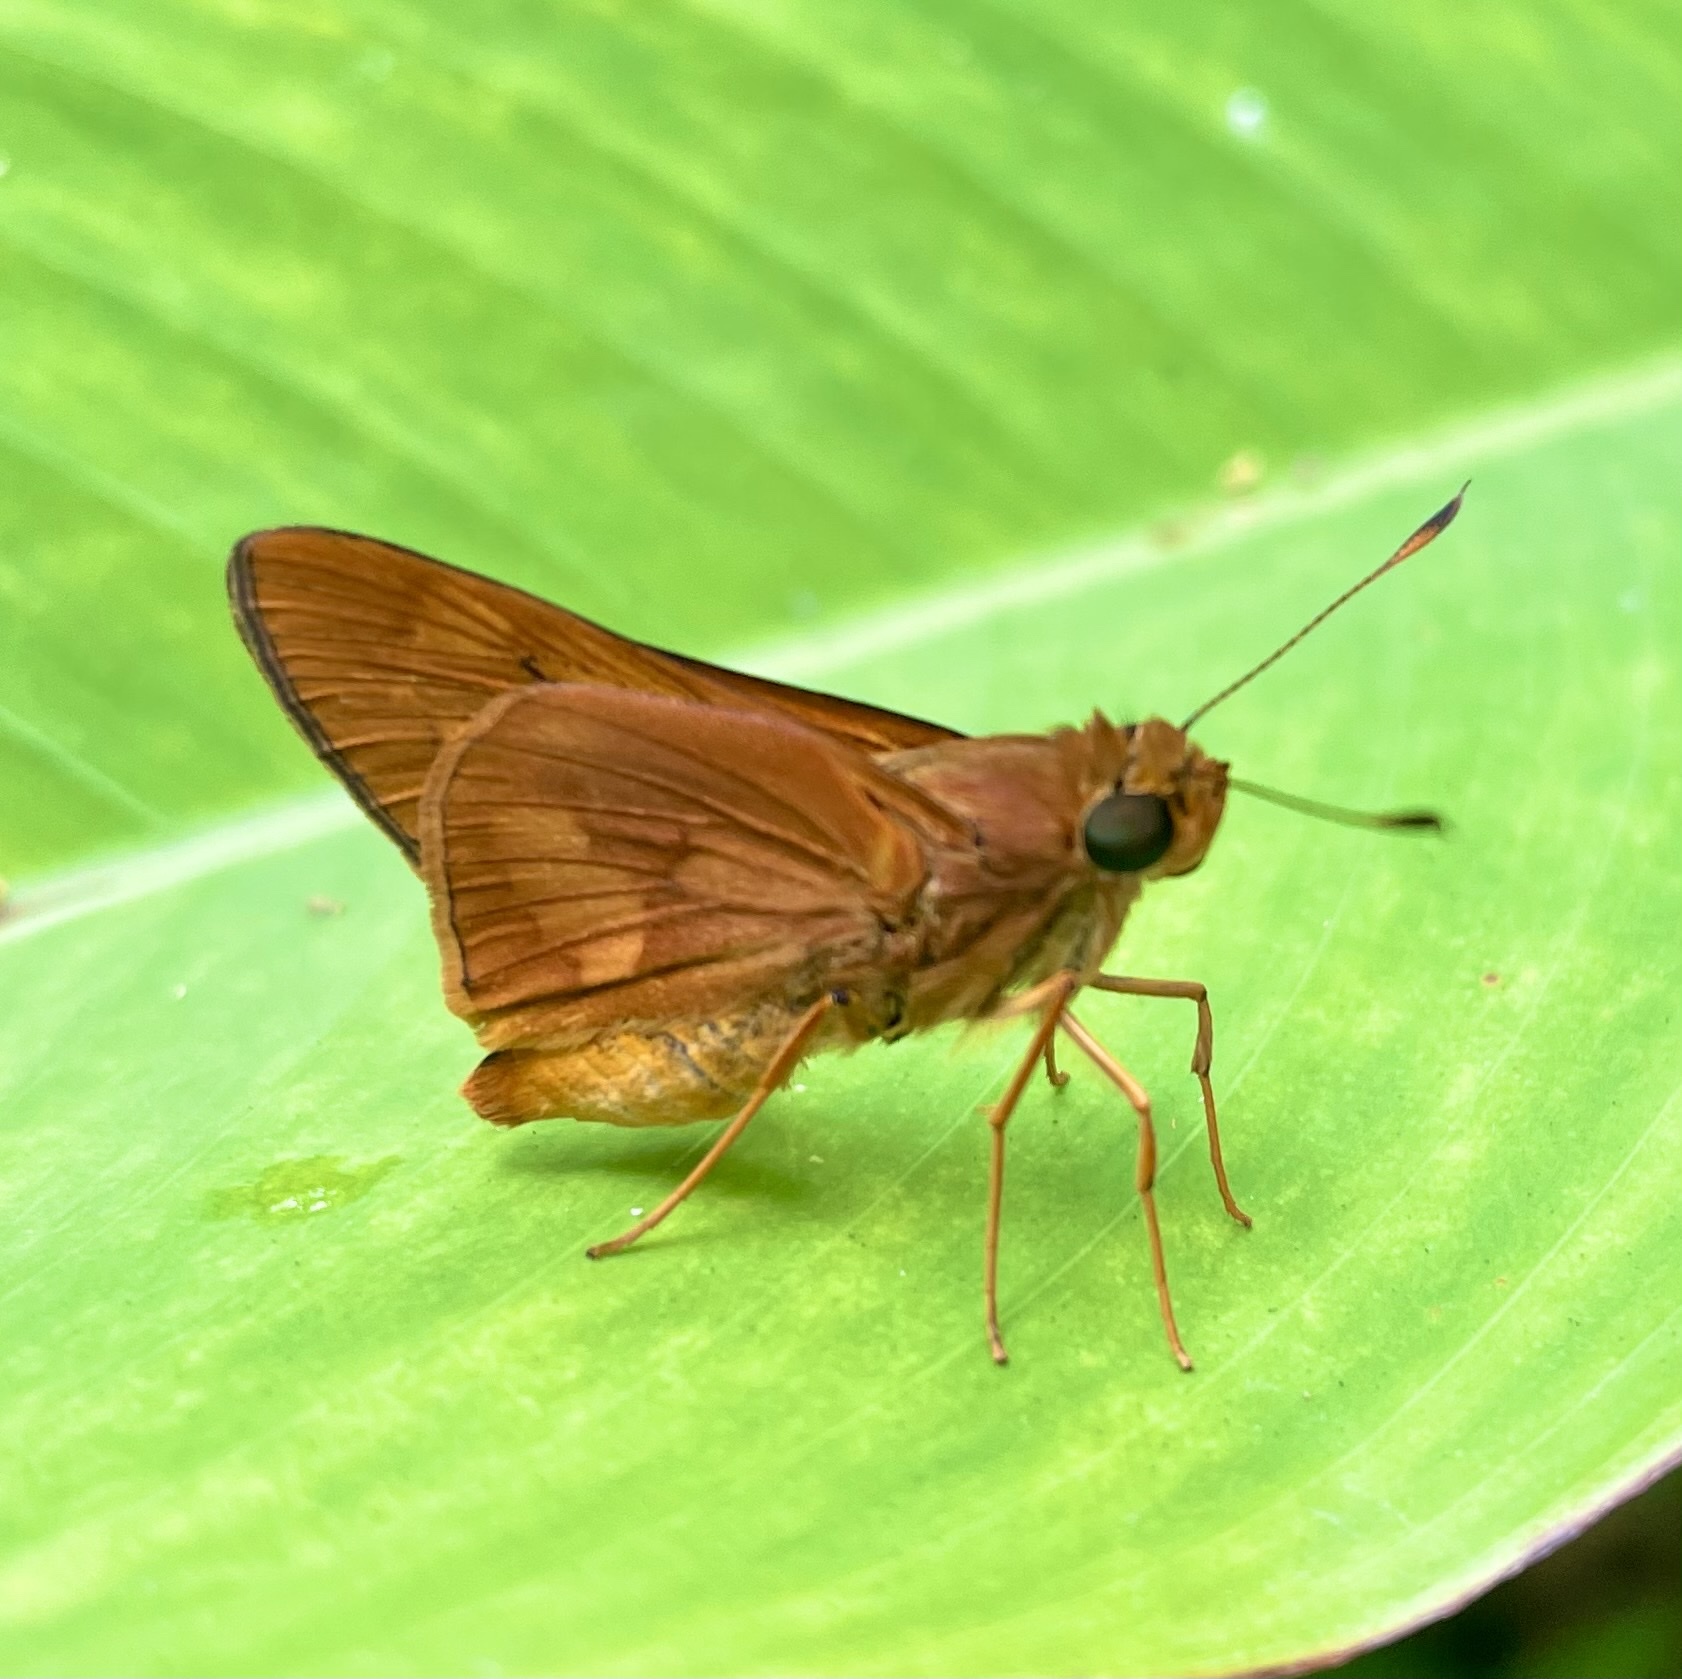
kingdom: Animalia
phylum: Arthropoda
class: Insecta
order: Lepidoptera
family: Hesperiidae
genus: Cephrenes
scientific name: Cephrenes augiades
